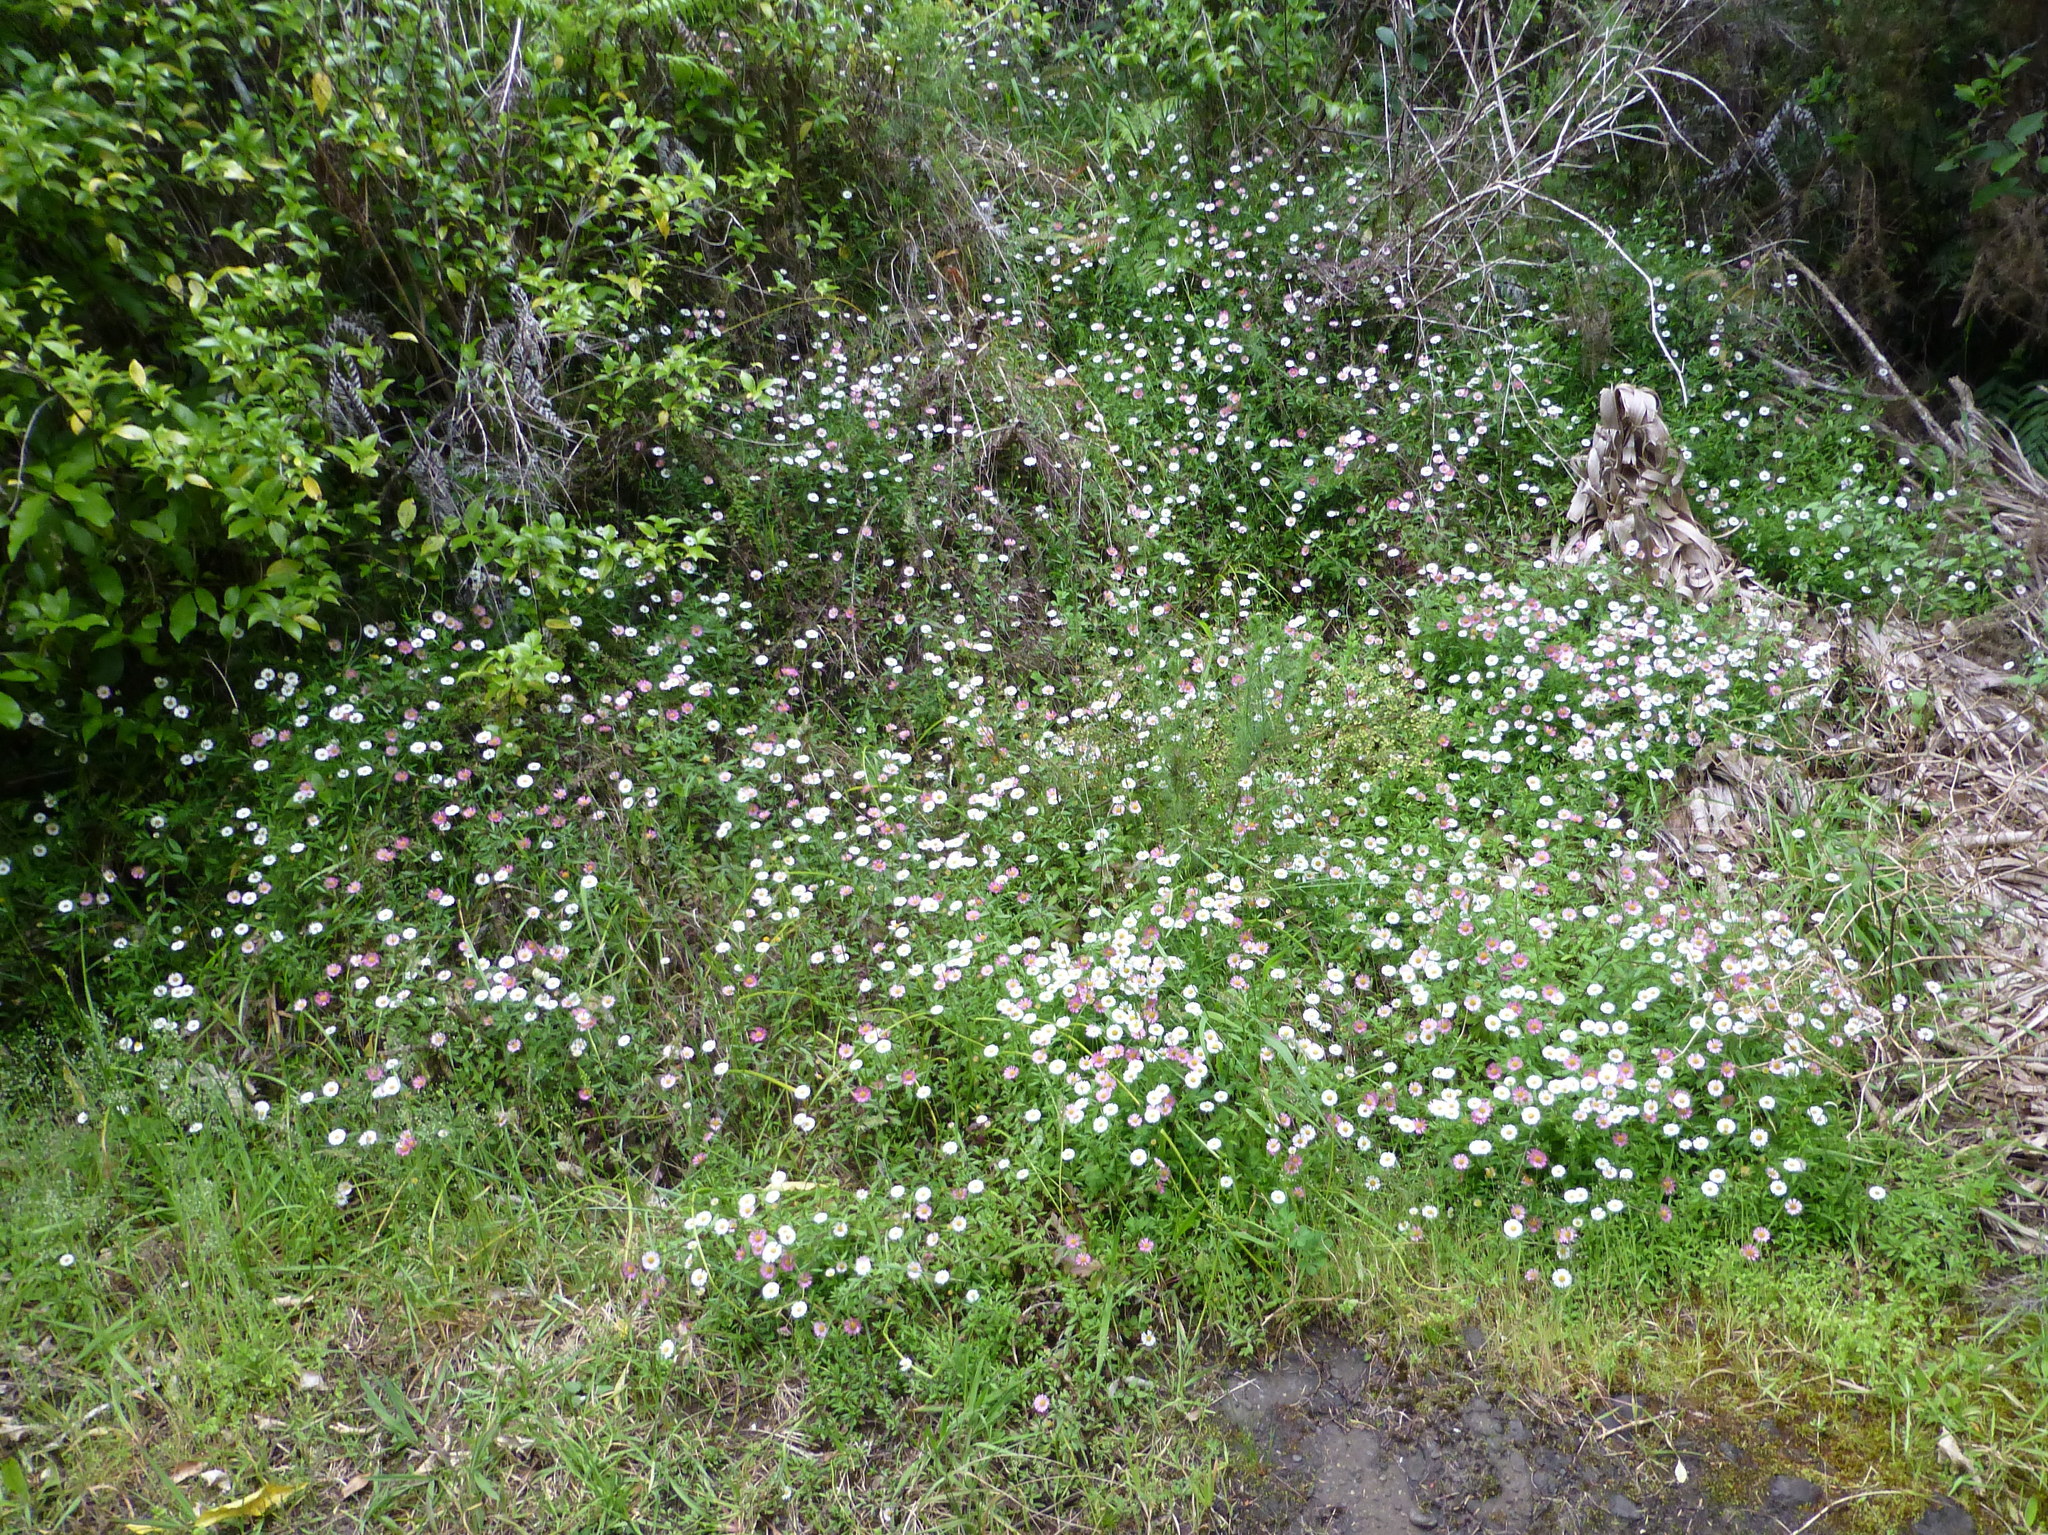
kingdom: Plantae
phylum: Tracheophyta
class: Magnoliopsida
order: Asterales
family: Asteraceae
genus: Erigeron
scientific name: Erigeron karvinskianus
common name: Mexican fleabane
